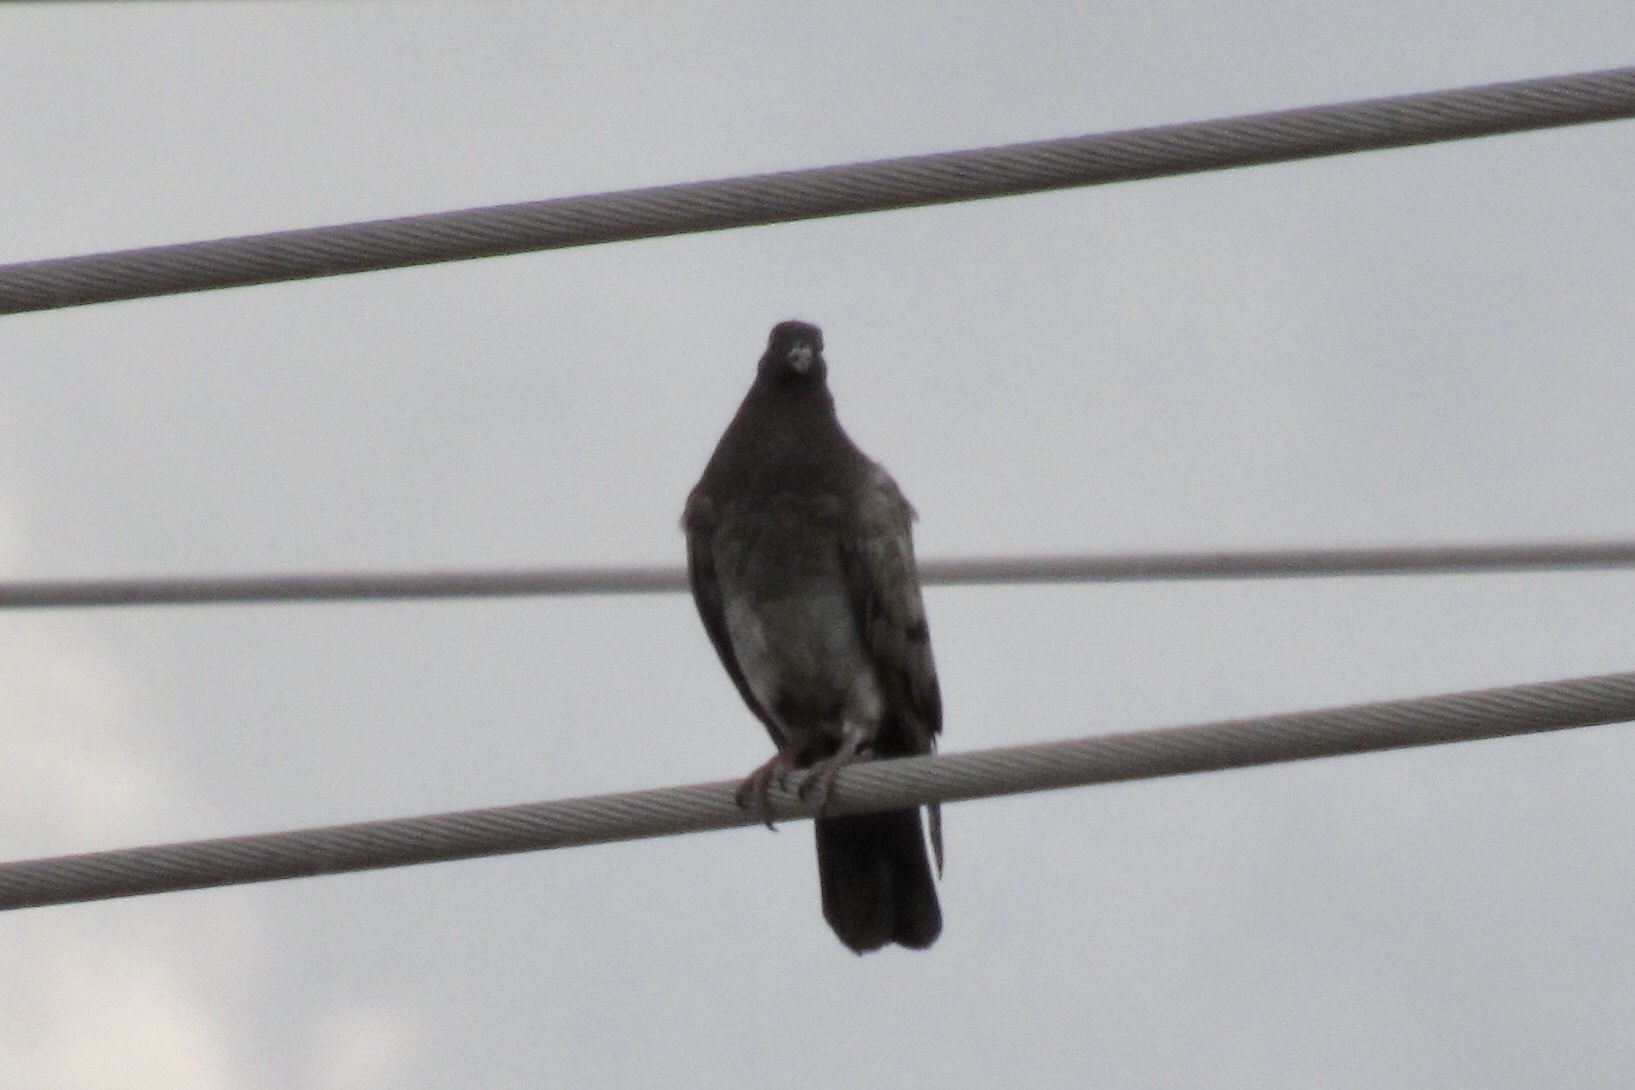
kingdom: Animalia
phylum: Chordata
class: Aves
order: Columbiformes
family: Columbidae
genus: Columba
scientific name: Columba livia
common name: Rock pigeon
